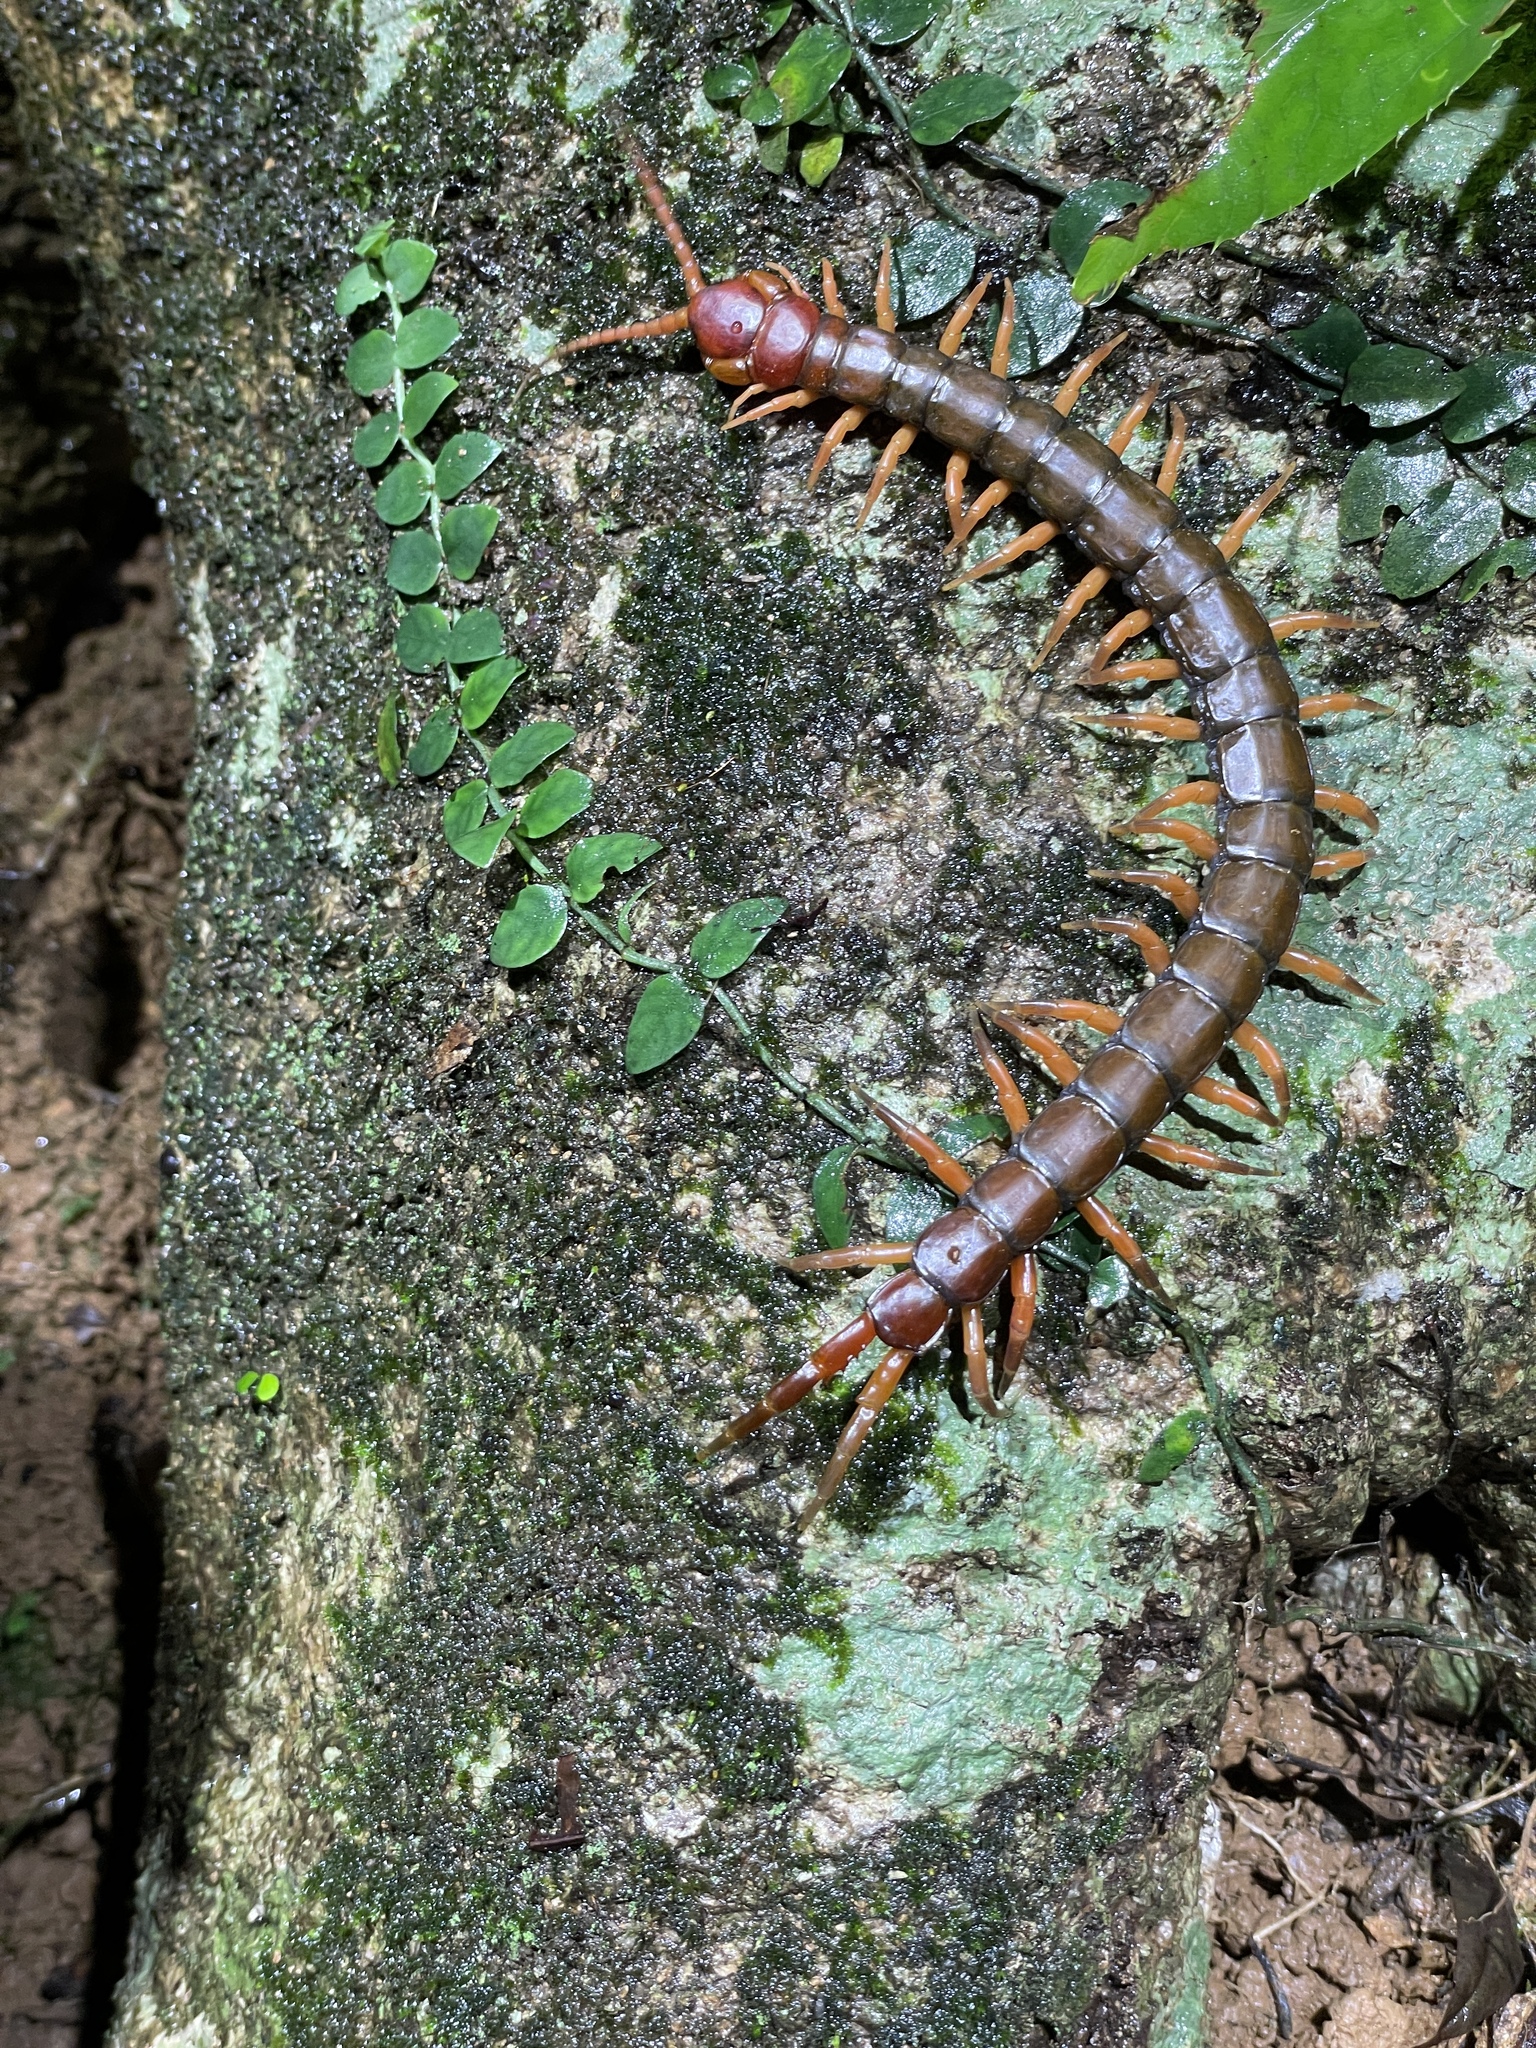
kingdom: Animalia
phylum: Arthropoda
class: Chilopoda
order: Scolopendromorpha
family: Scolopendridae
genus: Scolopendra
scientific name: Scolopendra multidens
